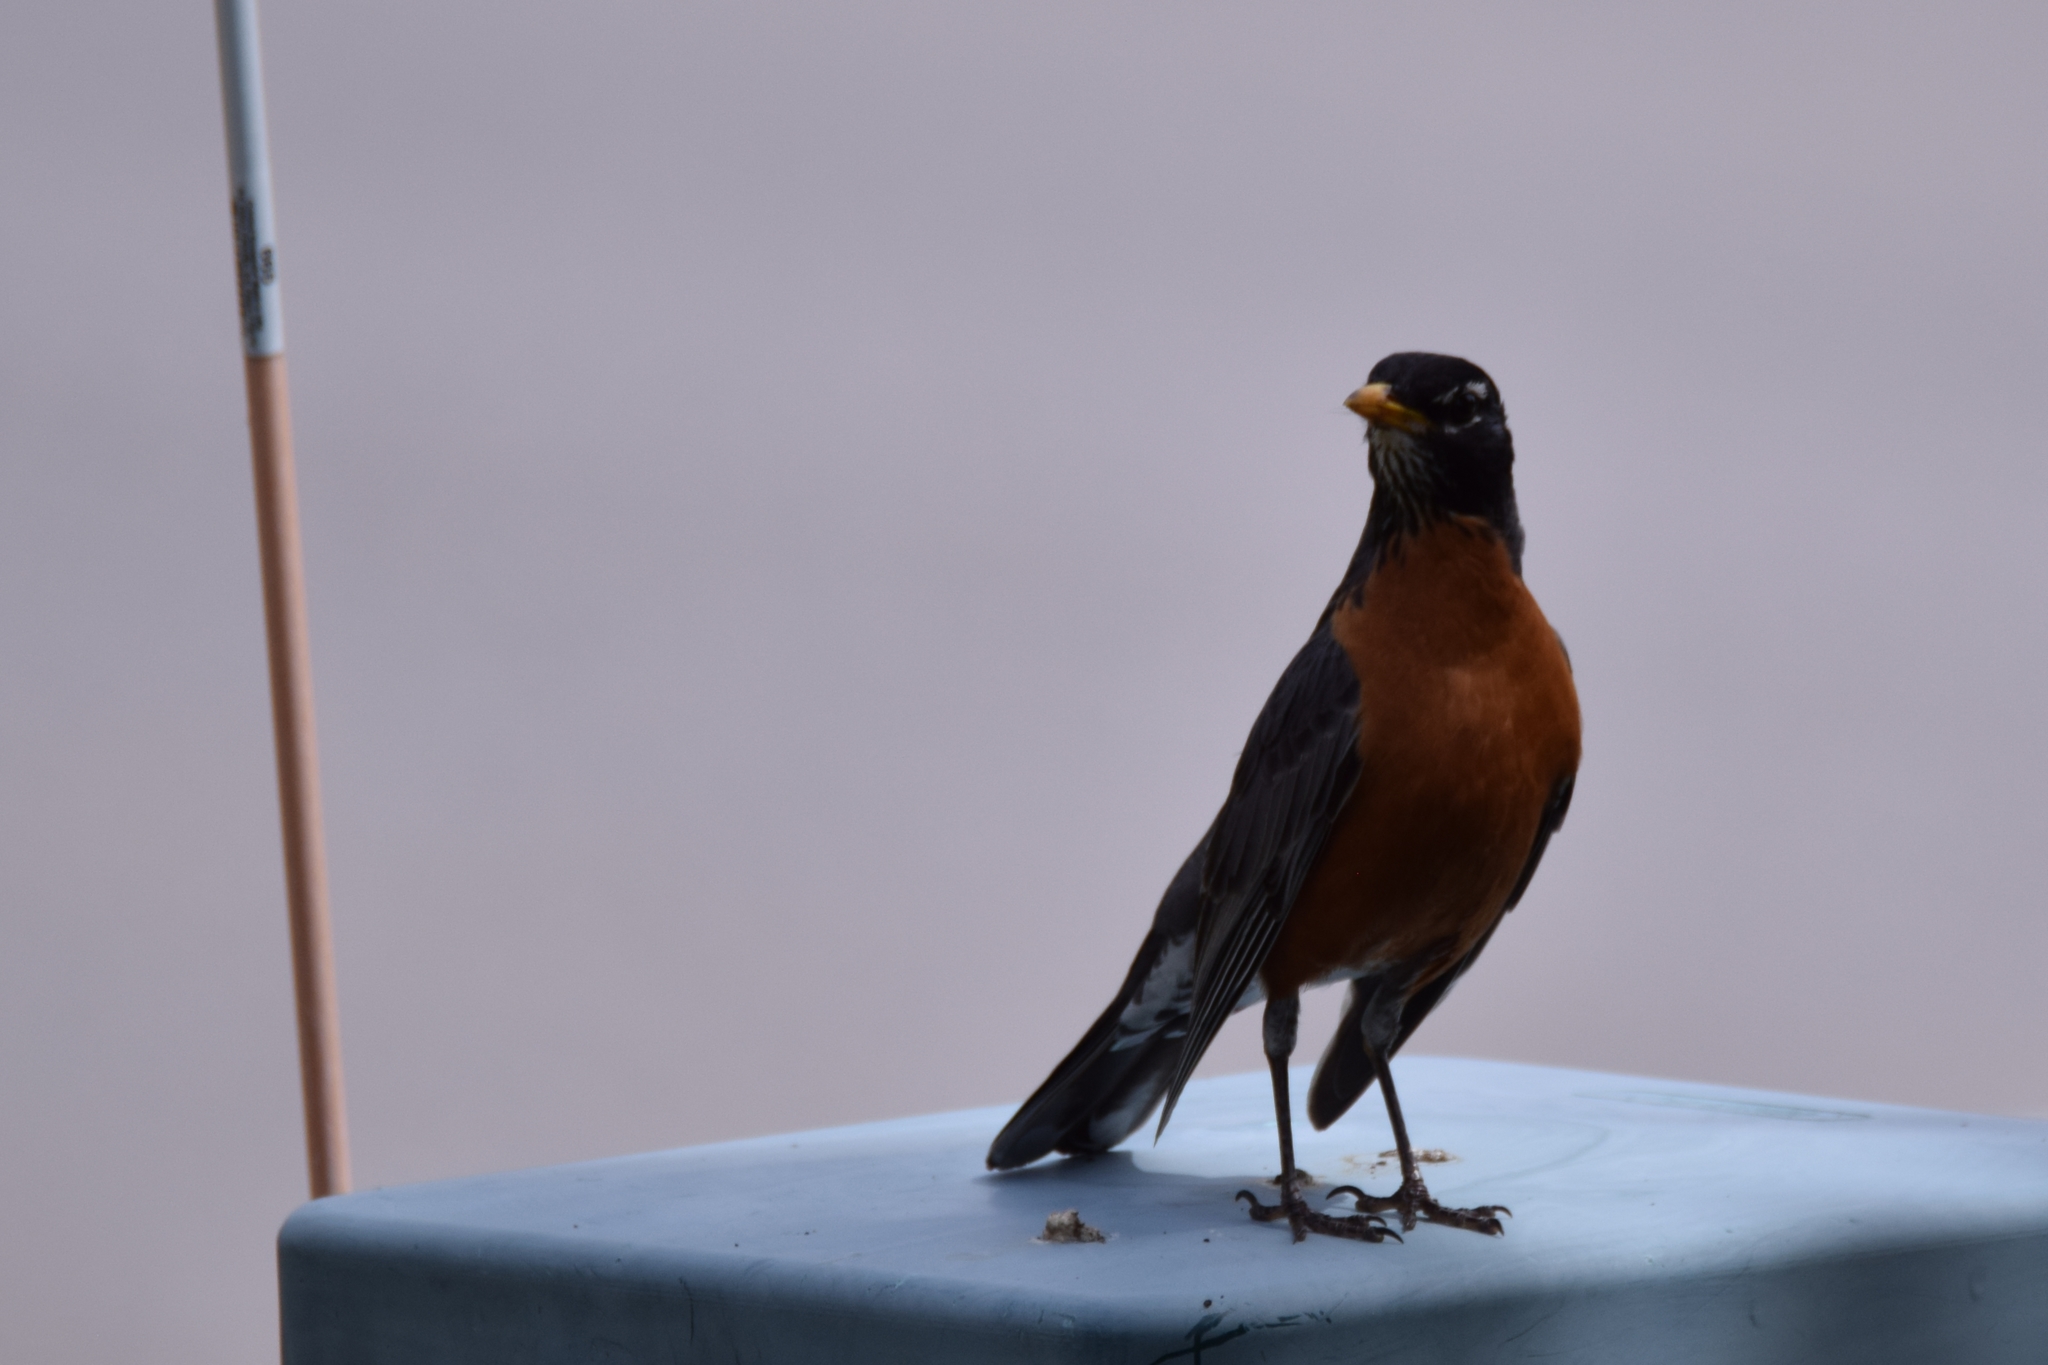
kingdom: Animalia
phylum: Chordata
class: Aves
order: Passeriformes
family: Turdidae
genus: Turdus
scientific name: Turdus migratorius
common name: American robin
